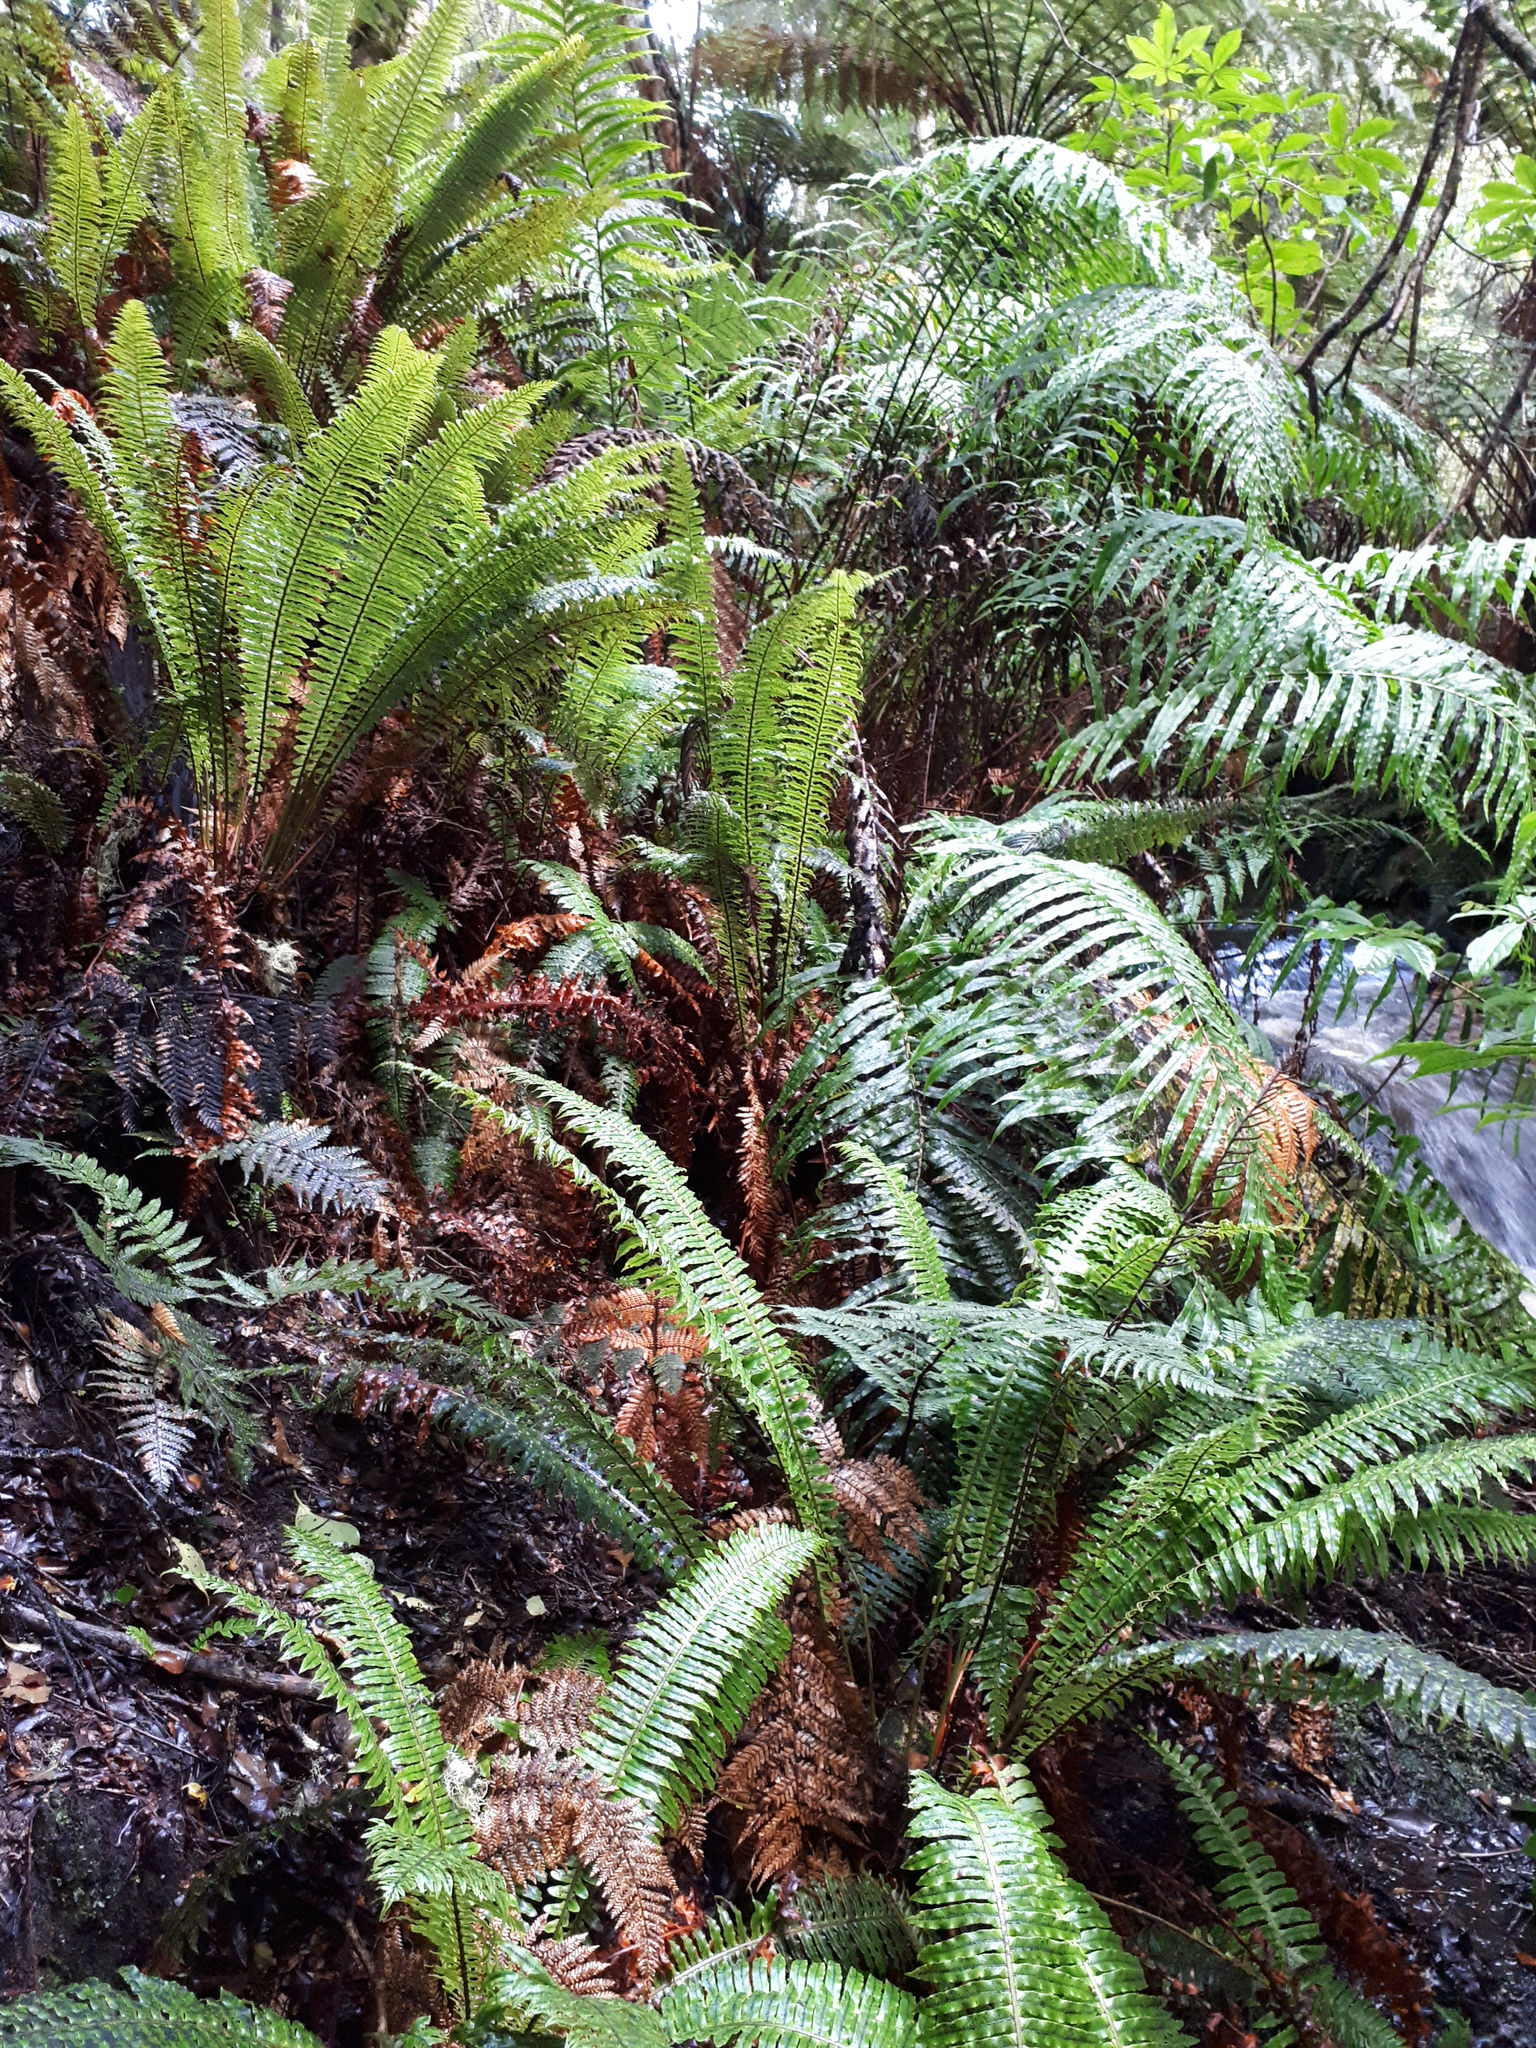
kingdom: Plantae
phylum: Tracheophyta
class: Polypodiopsida
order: Polypodiales
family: Blechnaceae
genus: Lomaria
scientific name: Lomaria discolor
